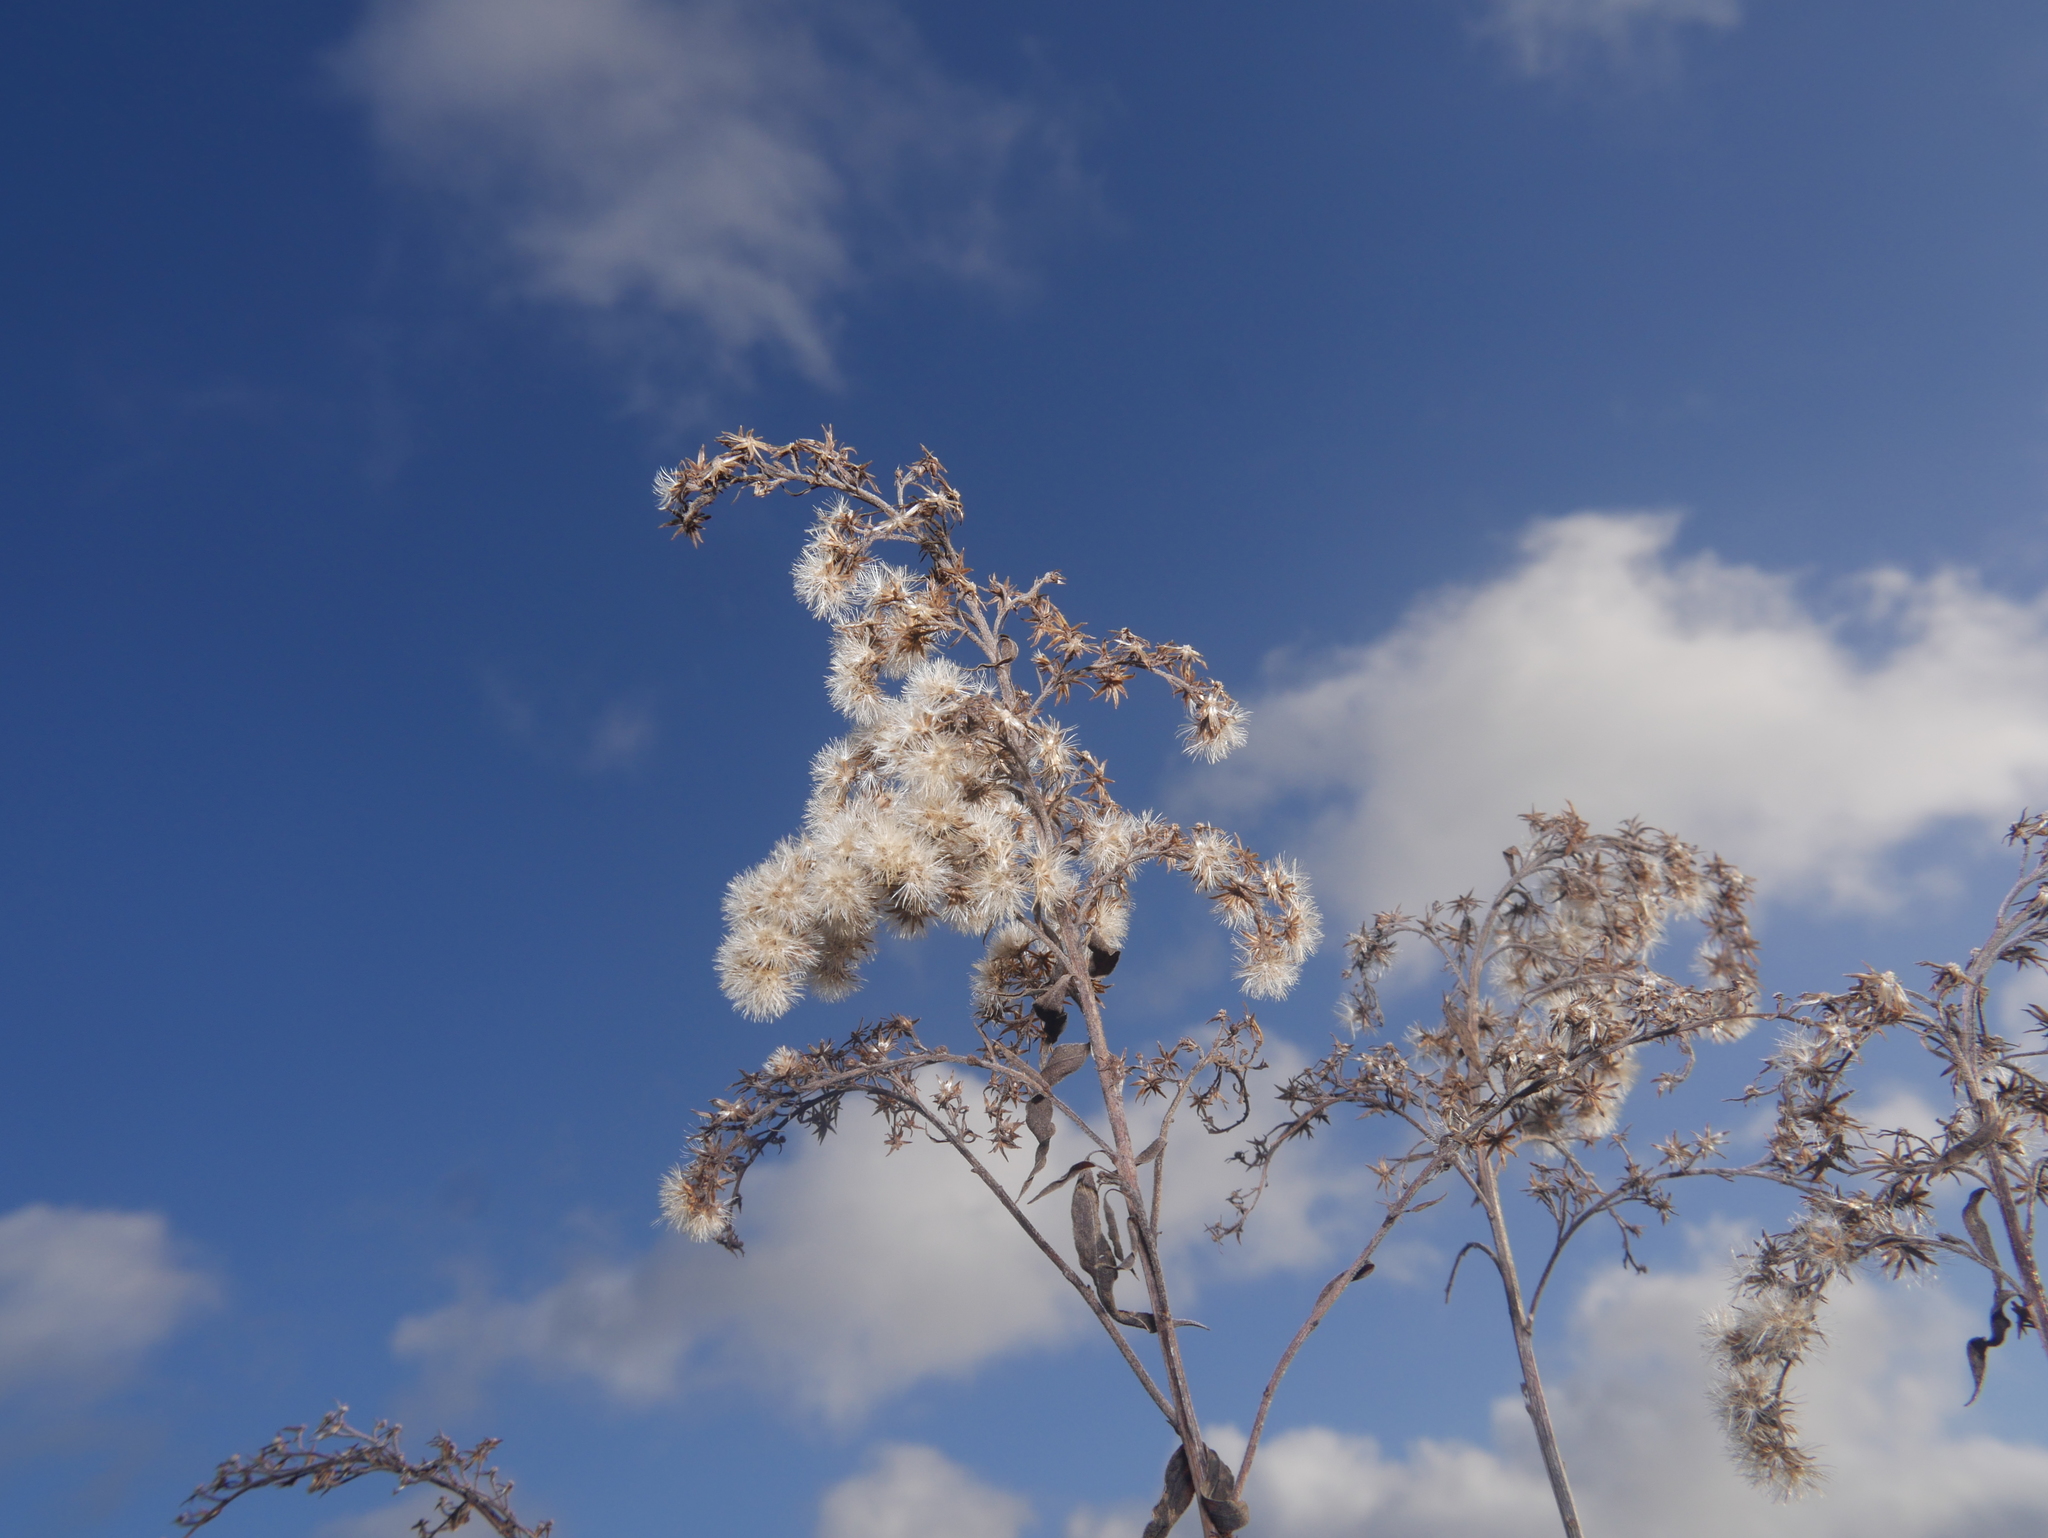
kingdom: Plantae
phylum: Tracheophyta
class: Magnoliopsida
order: Asterales
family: Asteraceae
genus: Solidago
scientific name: Solidago canadensis
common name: Canada goldenrod
